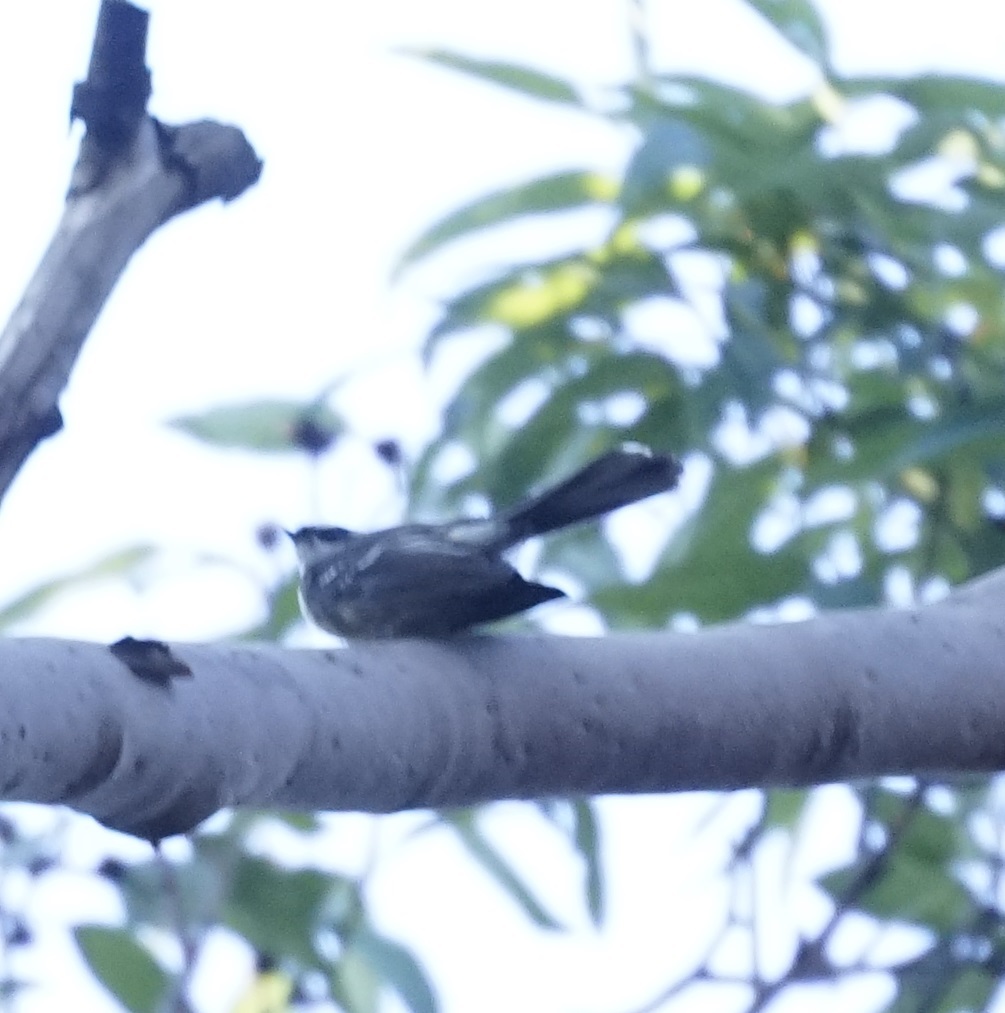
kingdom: Animalia
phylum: Chordata
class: Aves
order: Passeriformes
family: Rhipiduridae
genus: Rhipidura
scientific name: Rhipidura albiscapa
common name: Grey fantail
